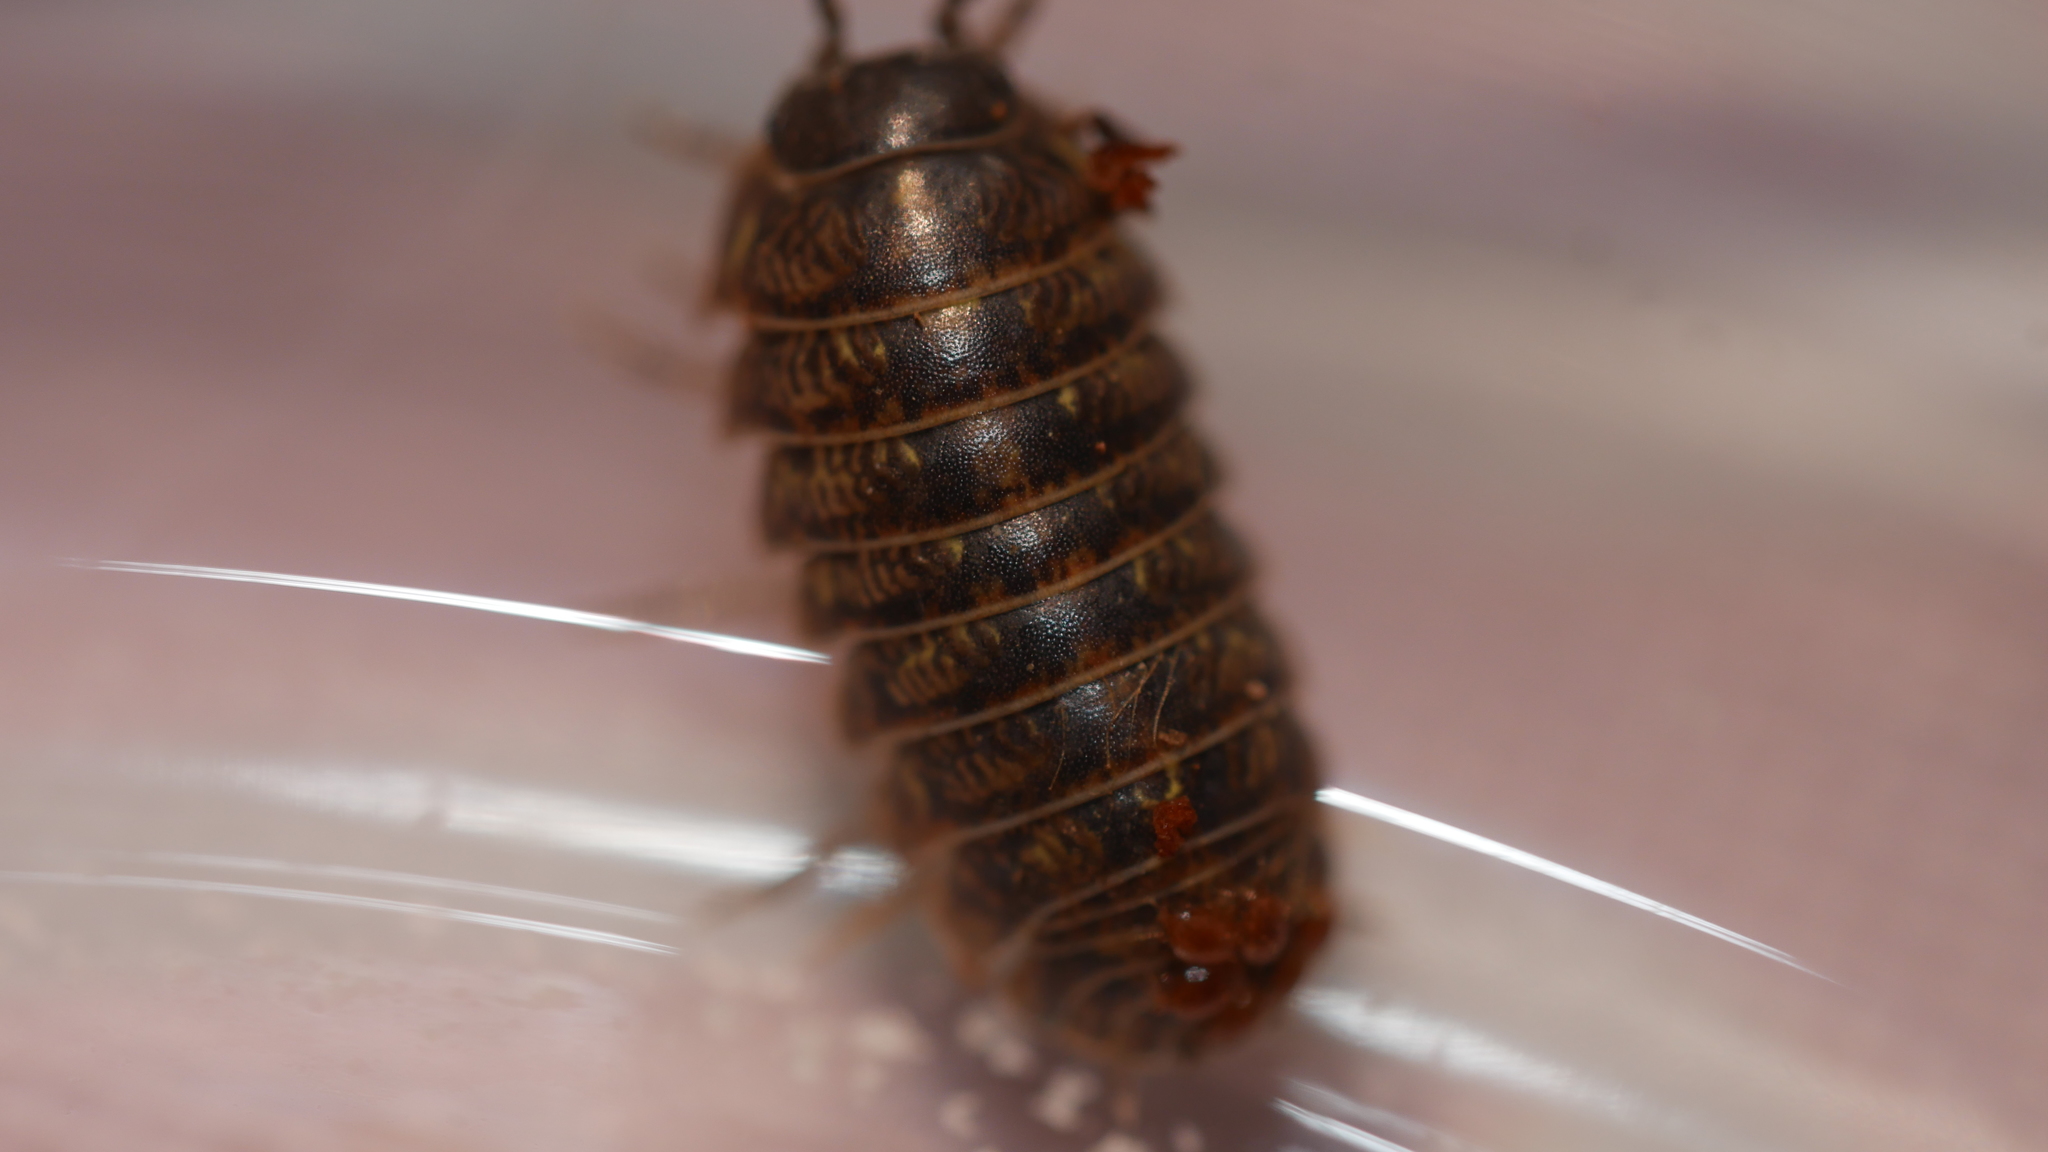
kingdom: Animalia
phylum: Arthropoda
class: Malacostraca
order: Isopoda
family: Armadillidiidae
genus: Armadillidium
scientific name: Armadillidium vulgare
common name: Common pill woodlouse
